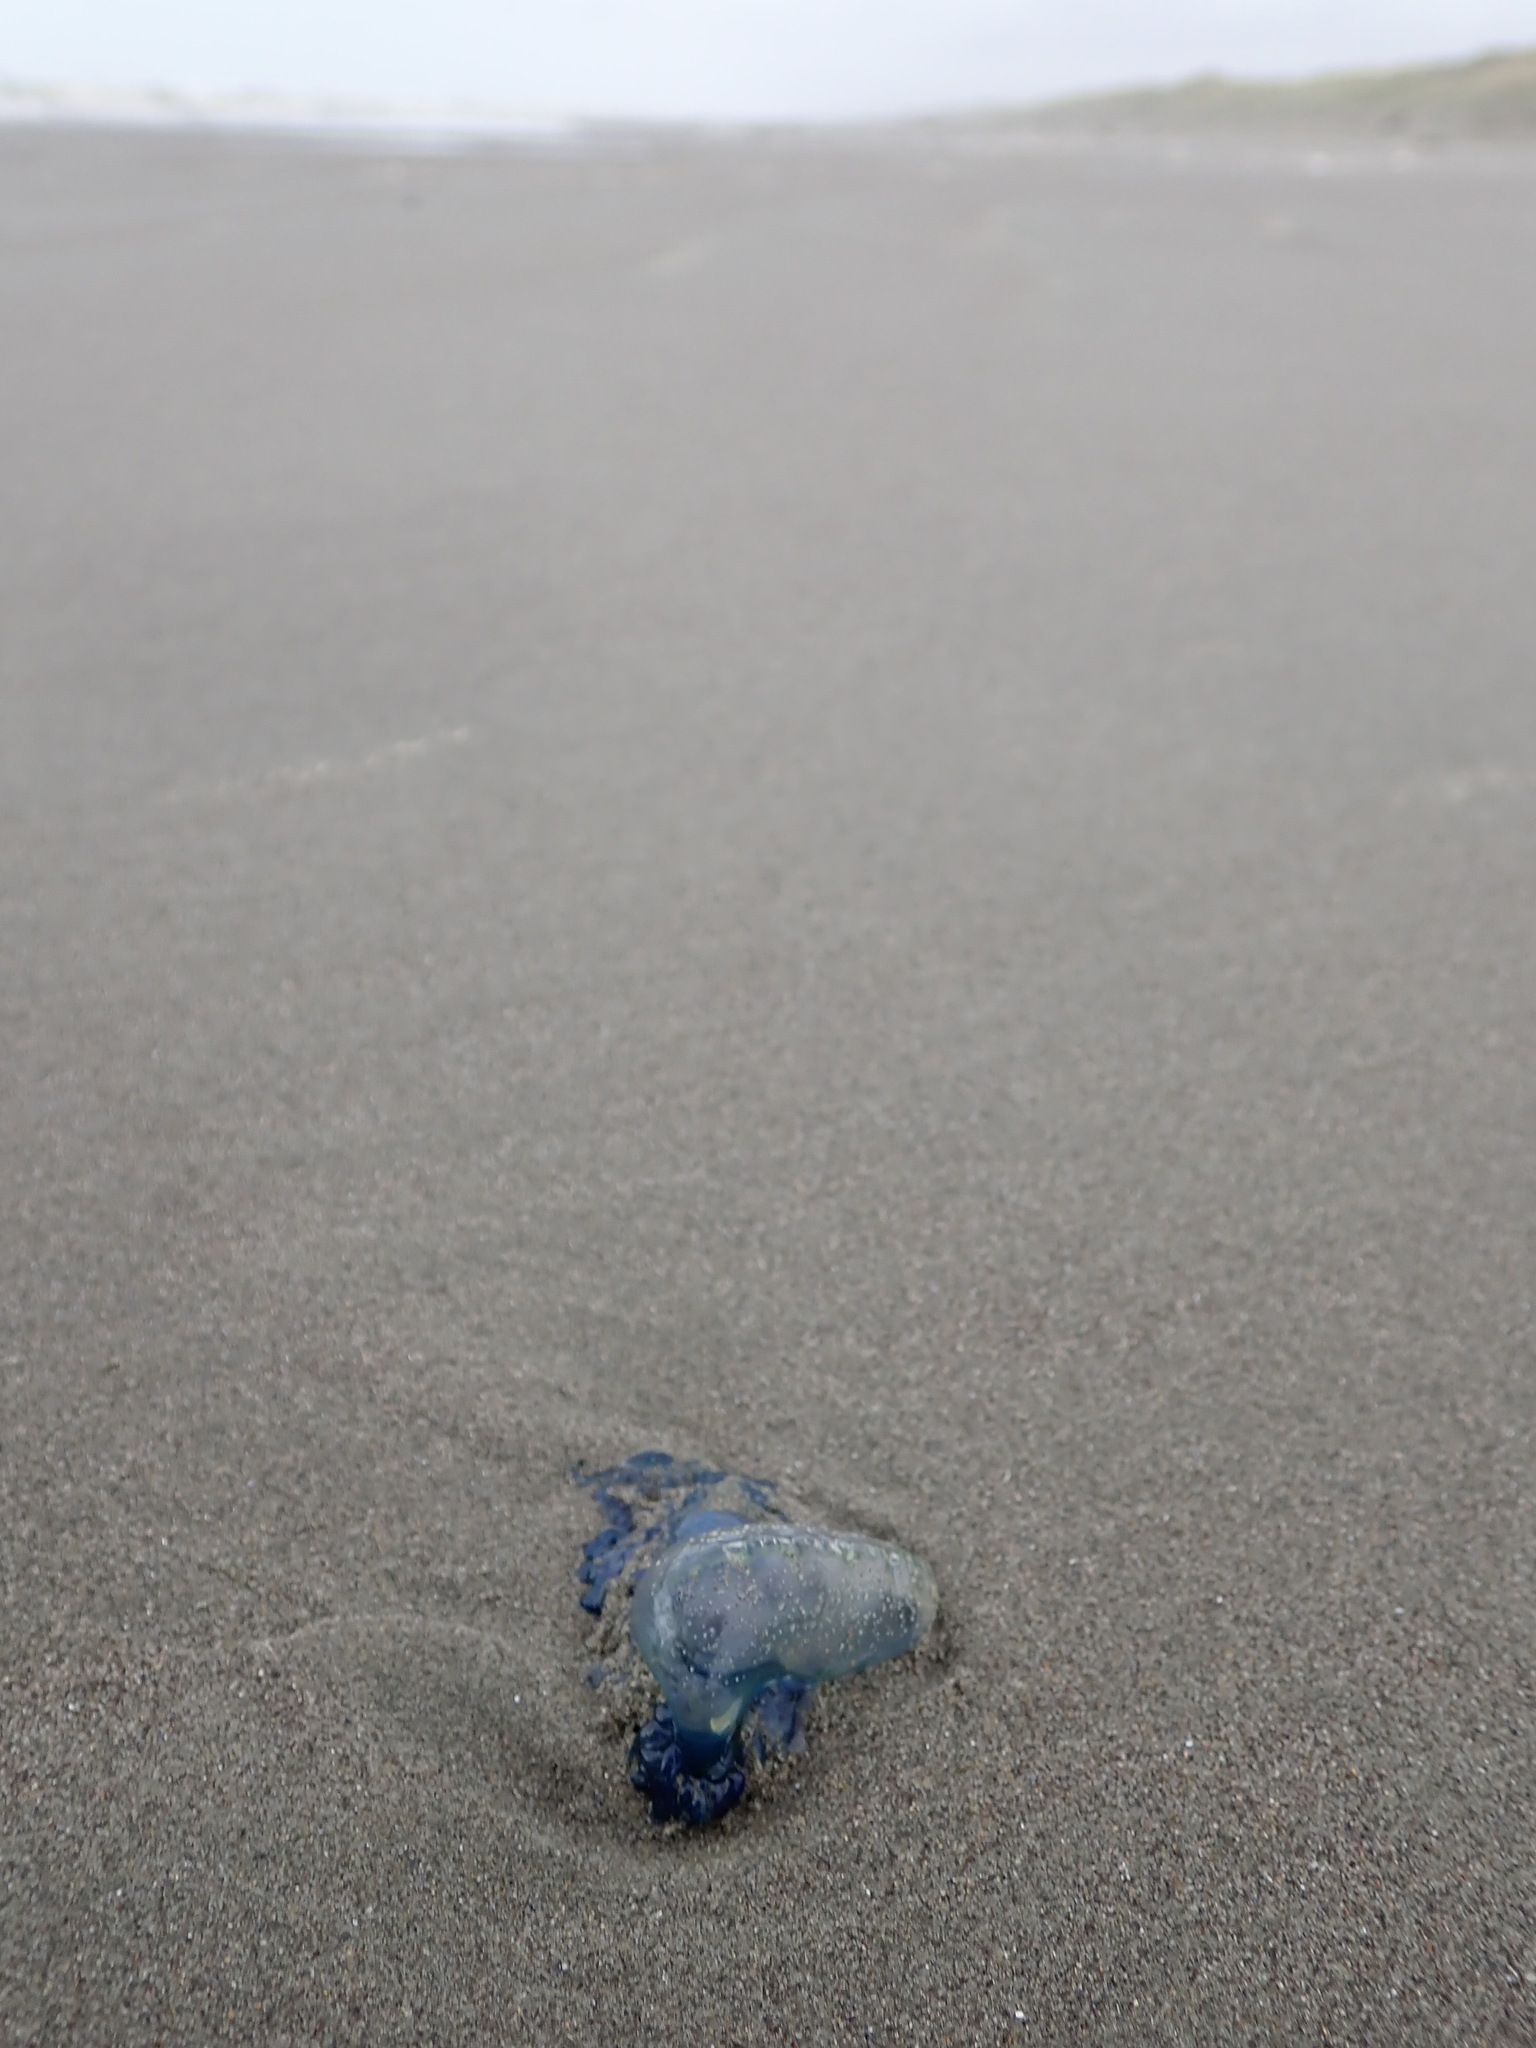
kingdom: Animalia
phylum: Cnidaria
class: Hydrozoa
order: Siphonophorae
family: Physaliidae
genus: Physalia
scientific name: Physalia physalis
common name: Portuguese man-of-war
